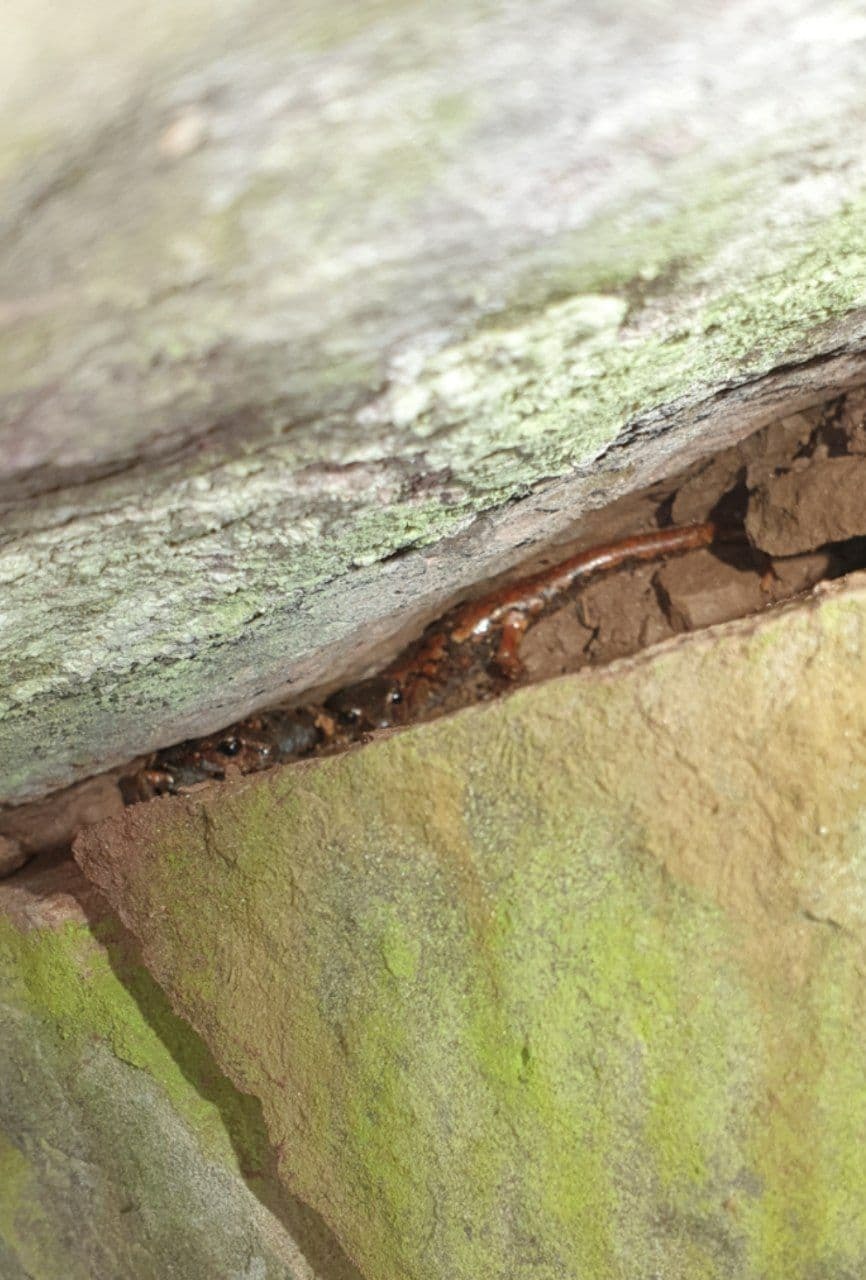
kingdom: Animalia
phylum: Chordata
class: Amphibia
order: Caudata
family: Plethodontidae
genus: Speleomantes
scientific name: Speleomantes italicus
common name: Italian cave salamander
